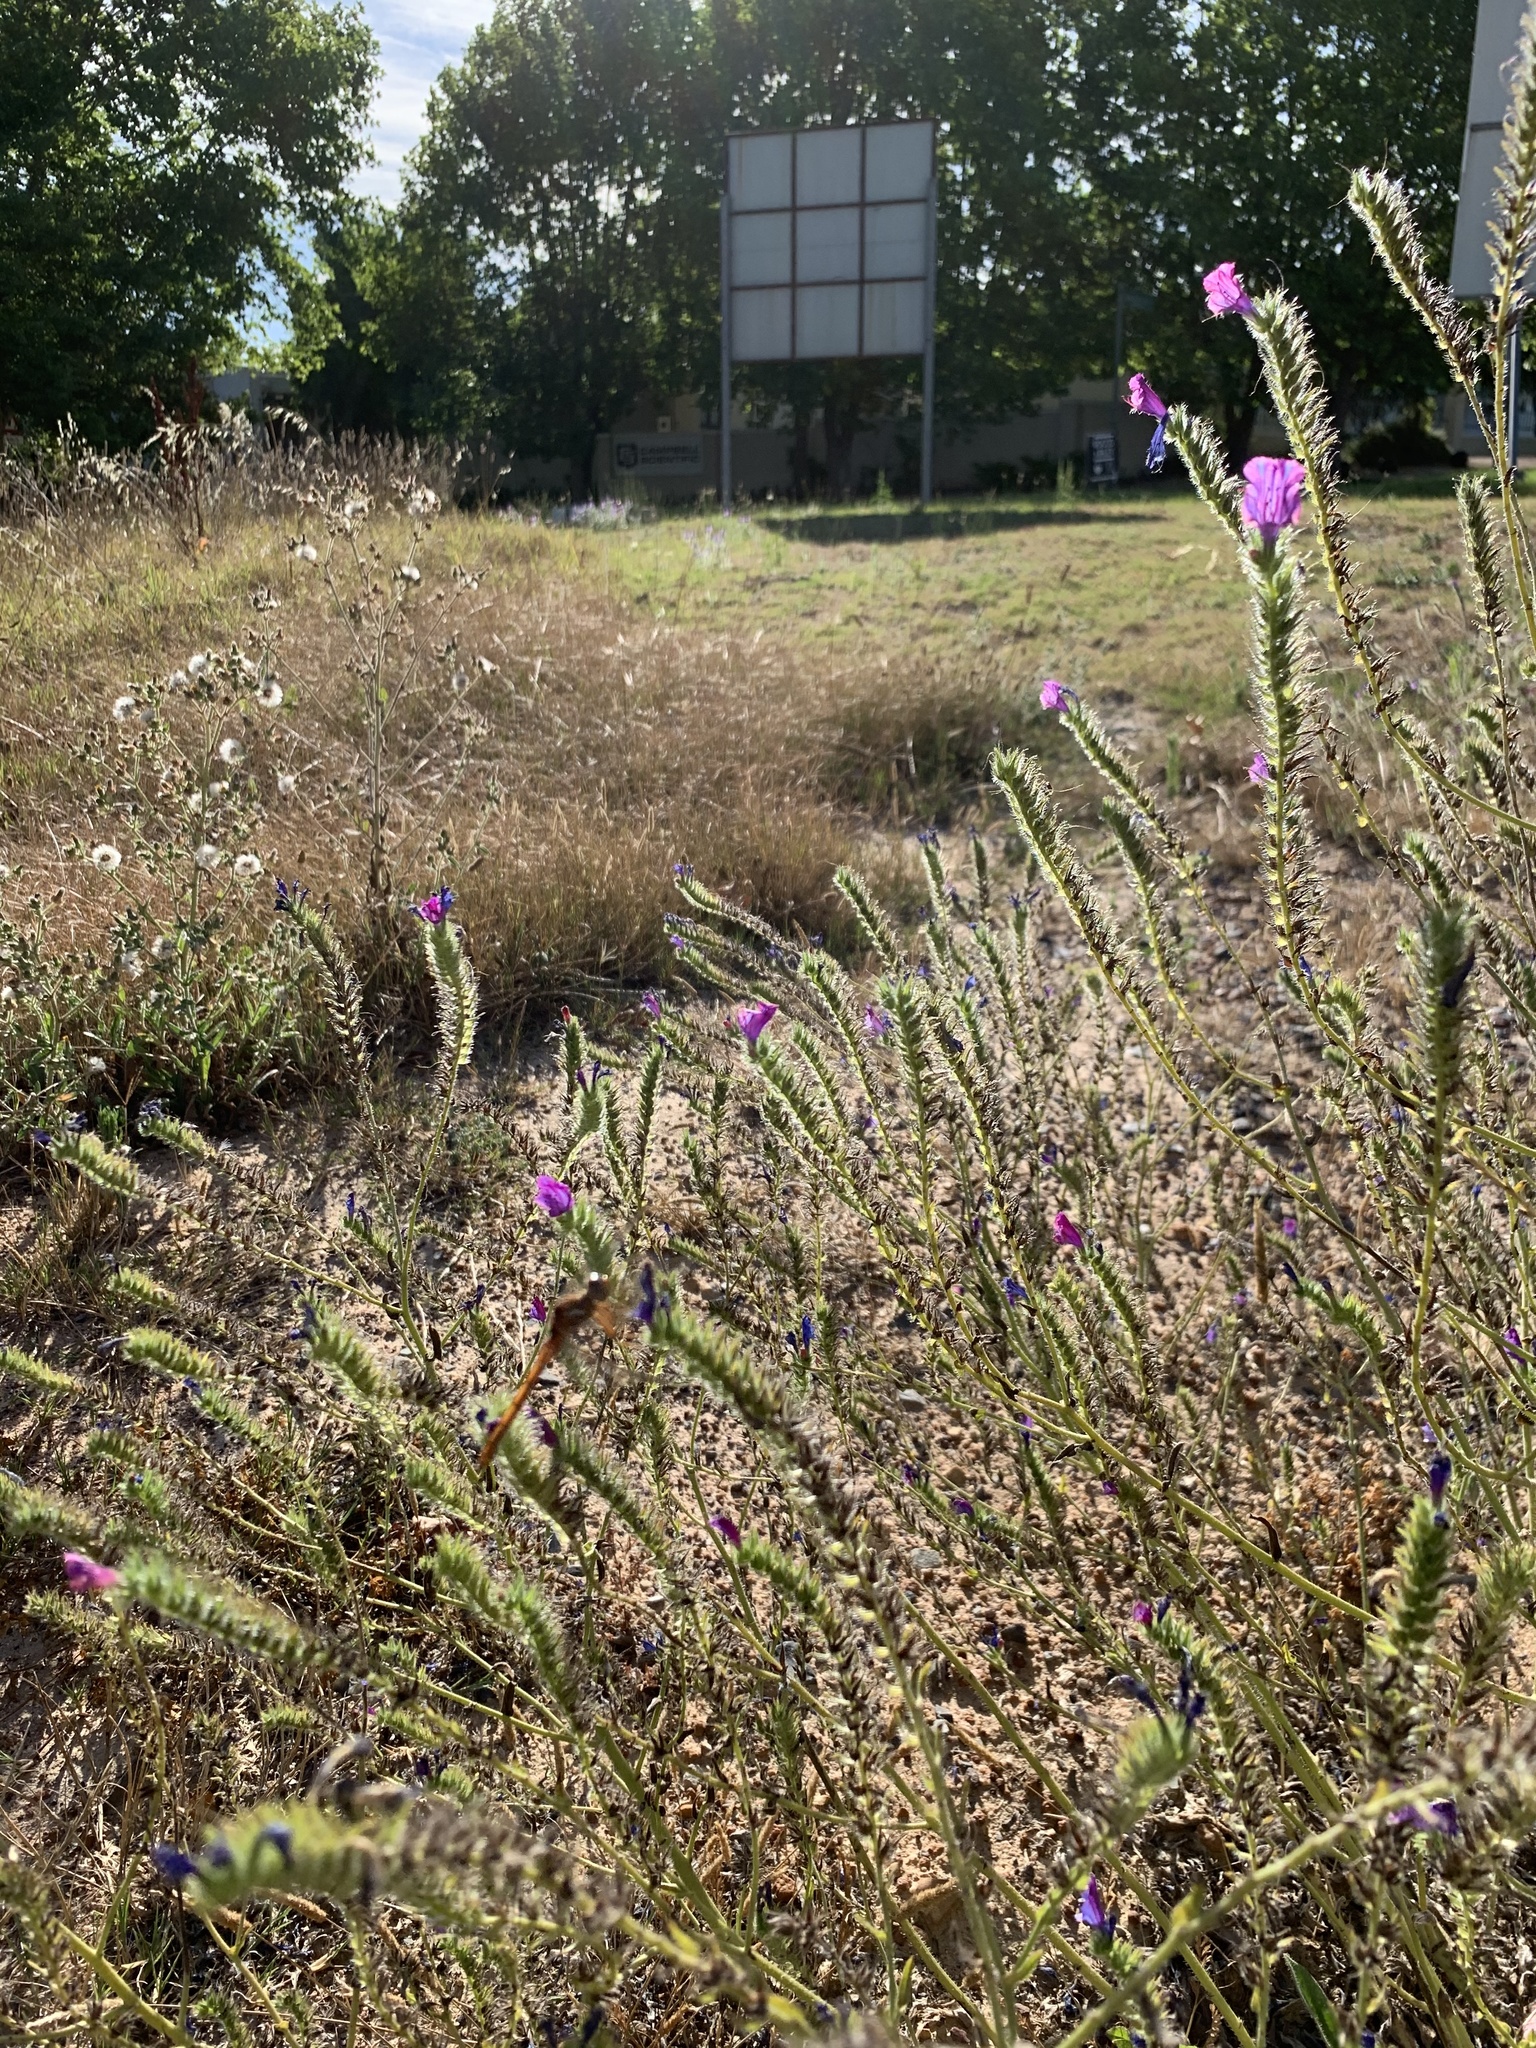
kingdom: Plantae
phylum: Tracheophyta
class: Magnoliopsida
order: Boraginales
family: Boraginaceae
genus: Echium
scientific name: Echium plantagineum
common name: Purple viper's-bugloss
